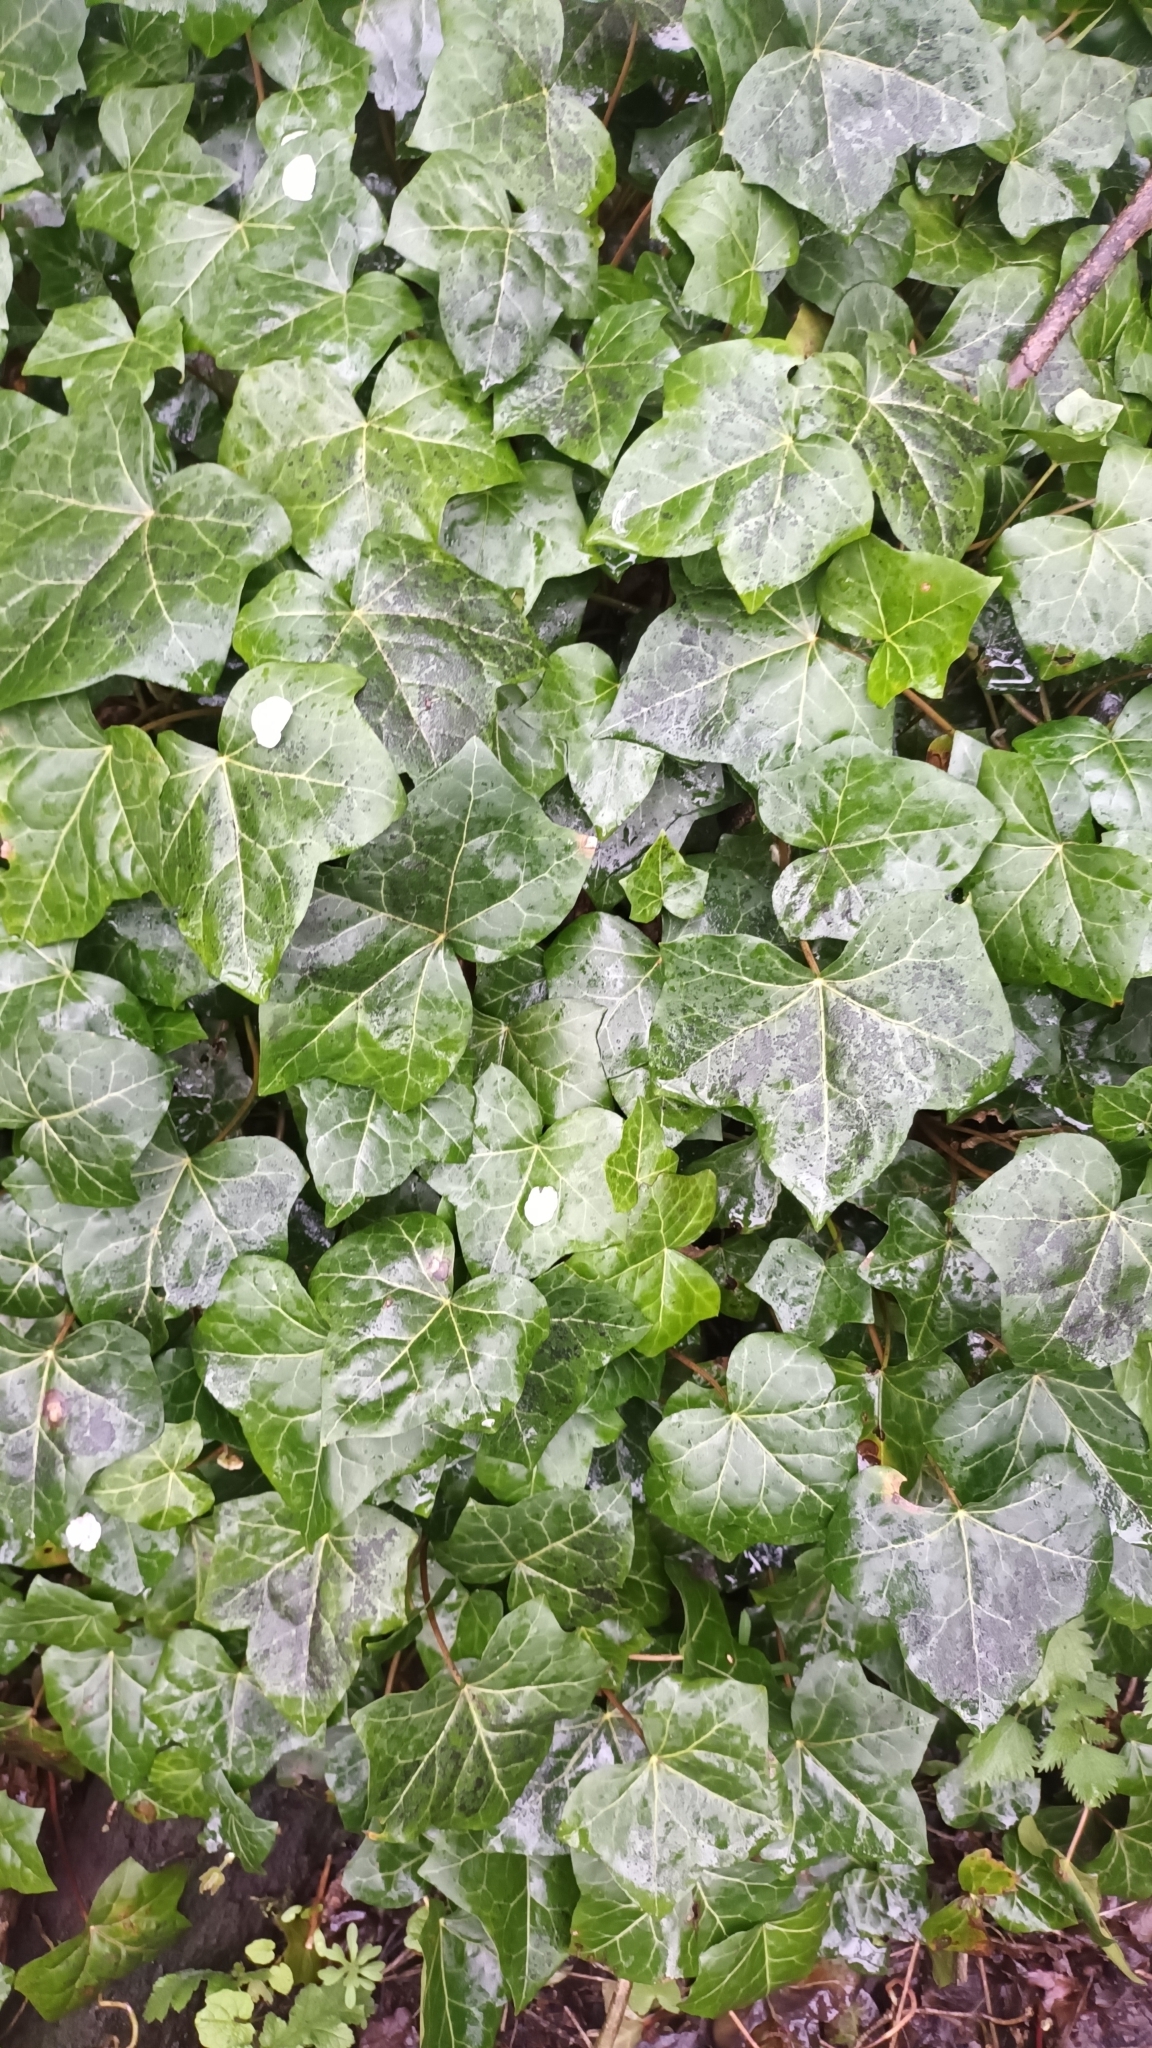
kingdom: Plantae
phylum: Tracheophyta
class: Magnoliopsida
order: Apiales
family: Araliaceae
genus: Hedera
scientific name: Hedera helix
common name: Ivy
